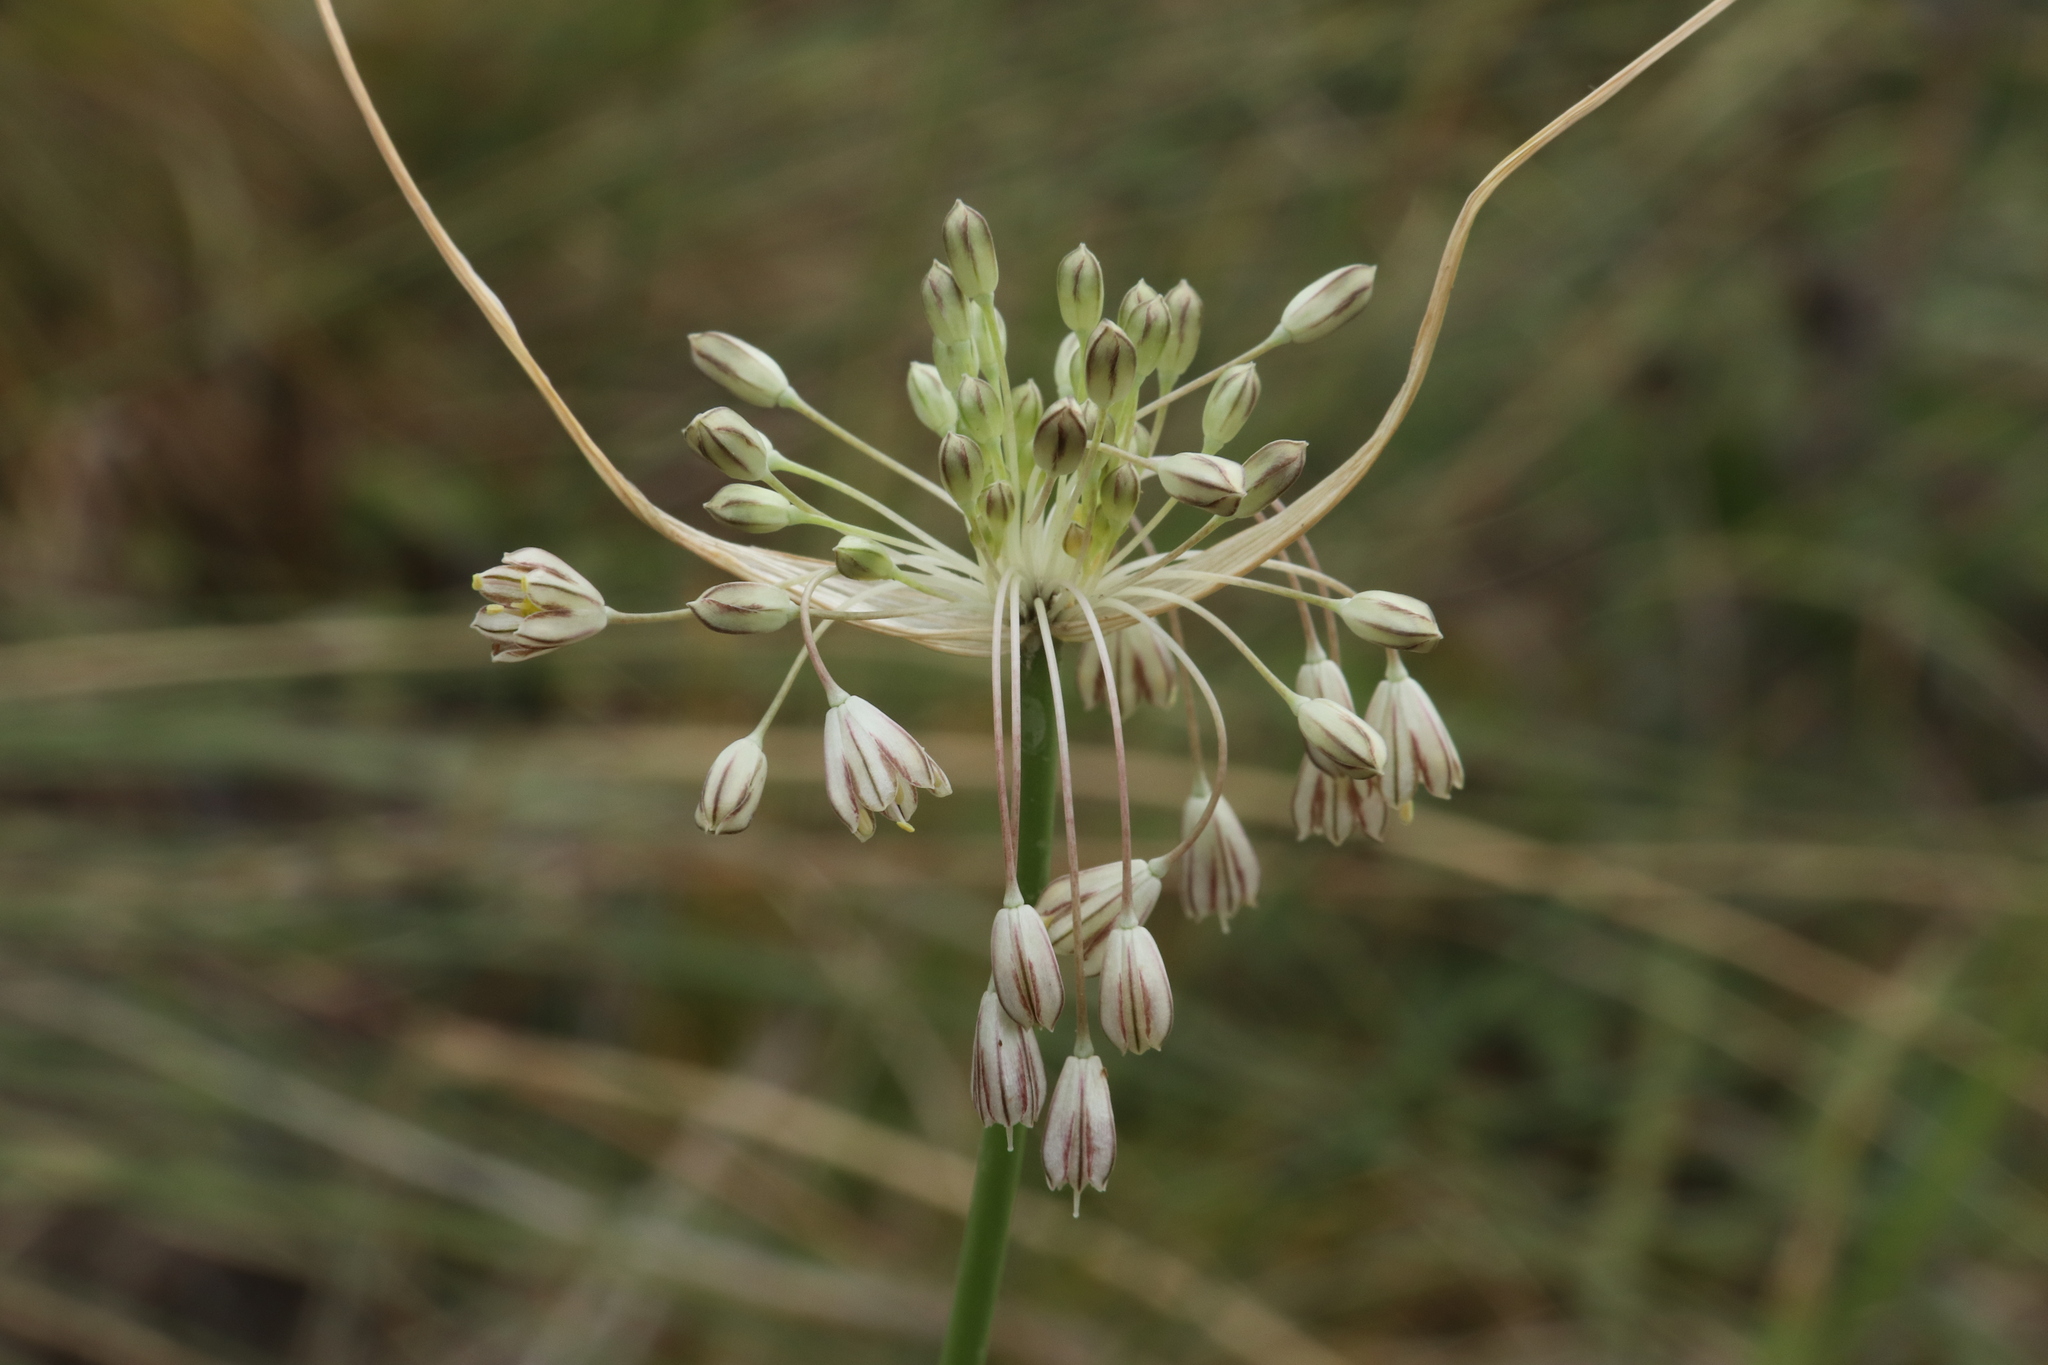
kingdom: Plantae
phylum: Tracheophyta
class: Liliopsida
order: Asparagales
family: Amaryllidaceae
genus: Allium
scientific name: Allium marginatum
